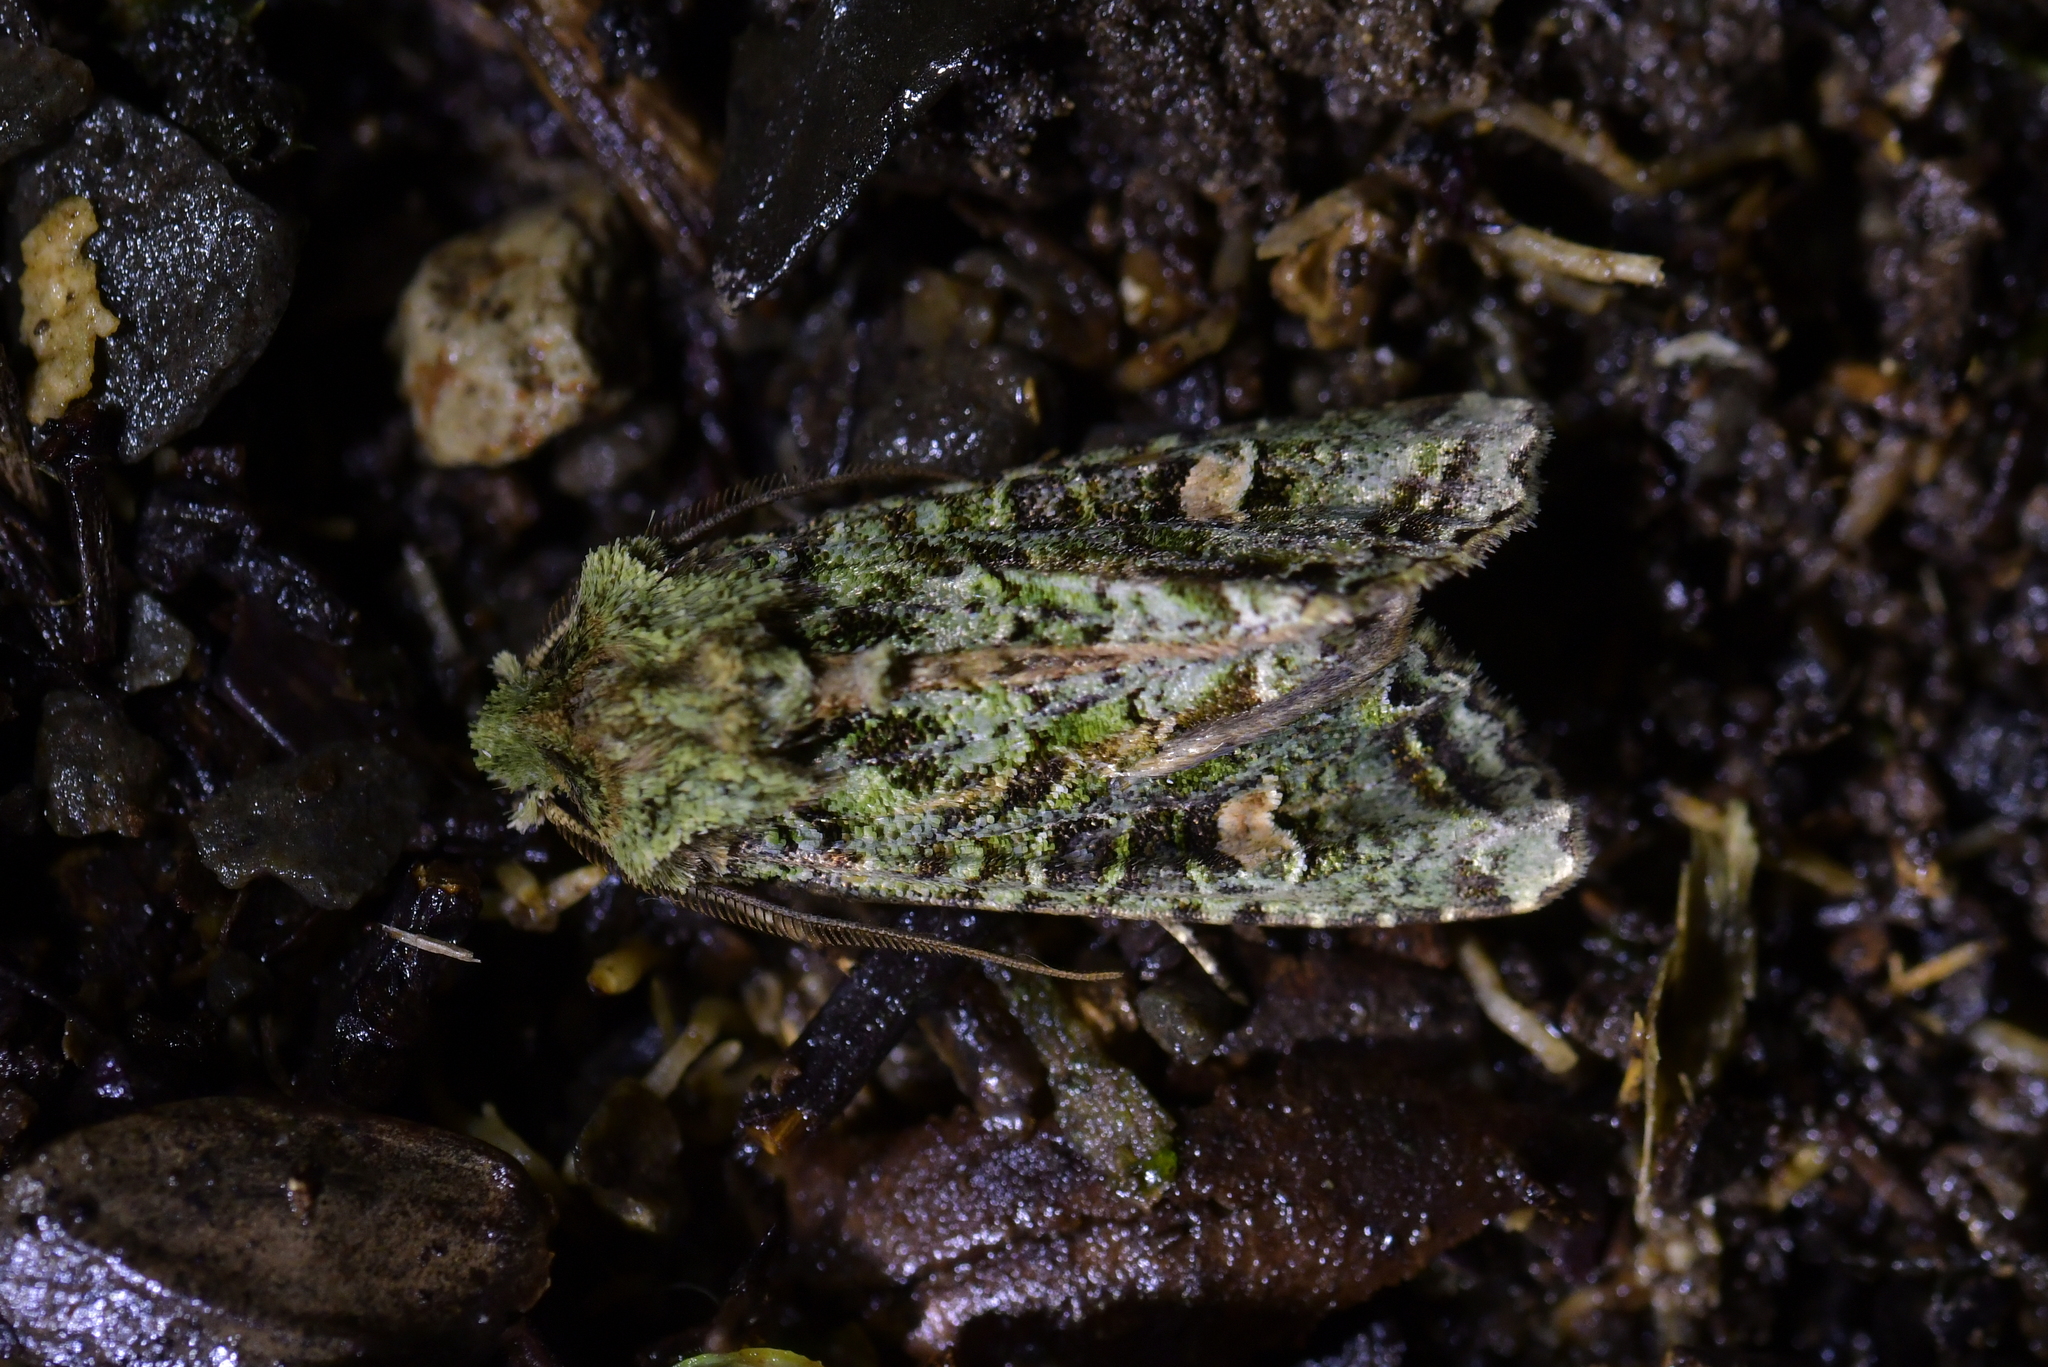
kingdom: Animalia
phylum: Arthropoda
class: Insecta
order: Lepidoptera
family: Noctuidae
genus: Ichneutica
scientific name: Ichneutica
